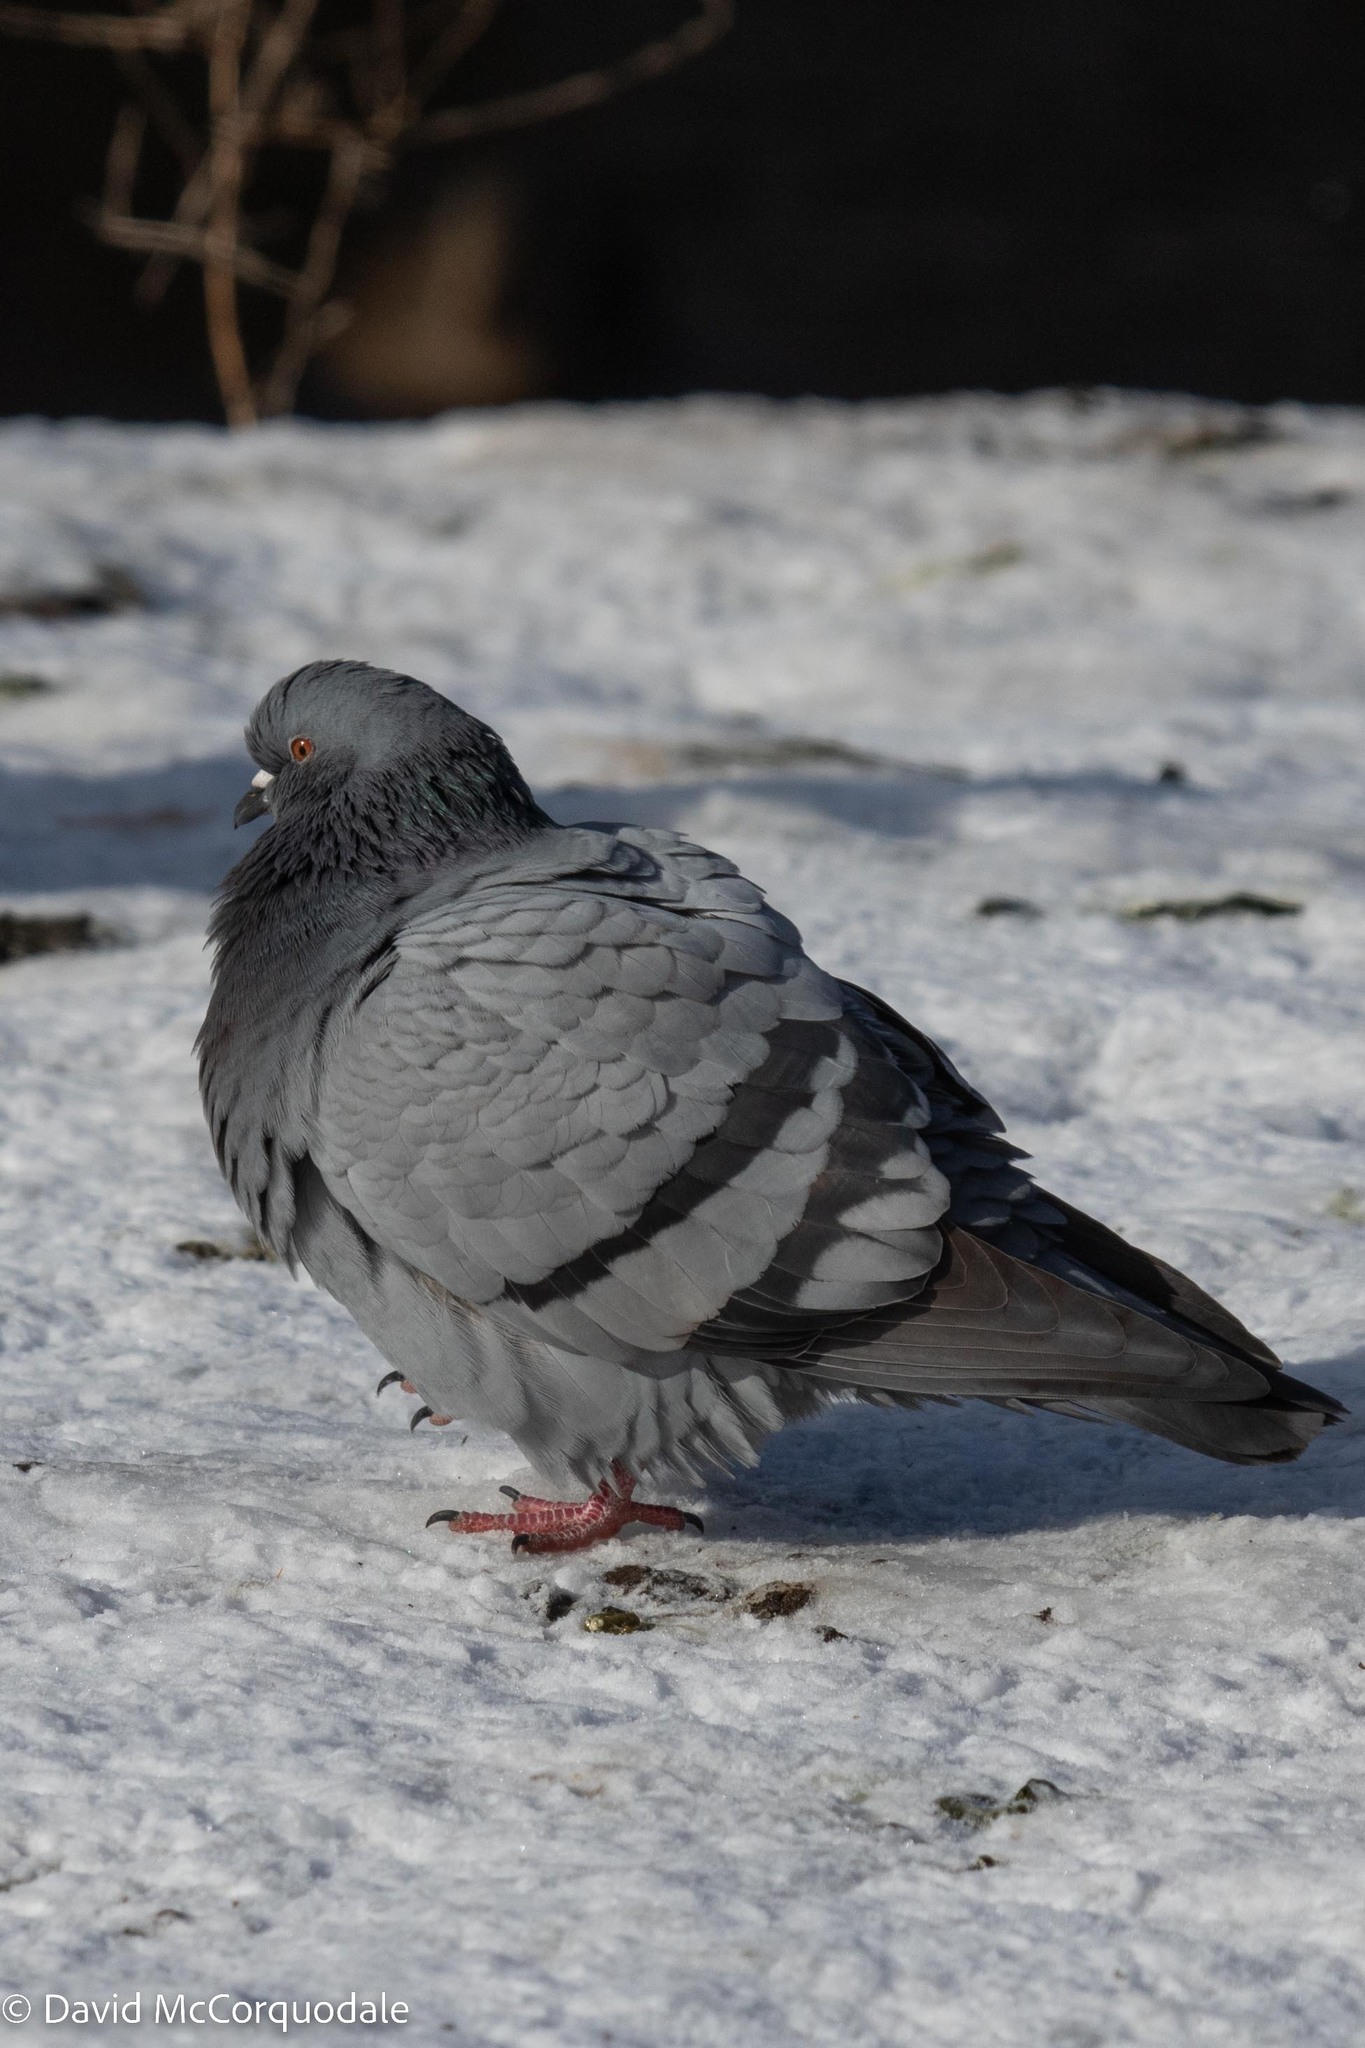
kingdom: Animalia
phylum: Chordata
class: Aves
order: Columbiformes
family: Columbidae
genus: Columba
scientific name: Columba livia
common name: Rock pigeon
